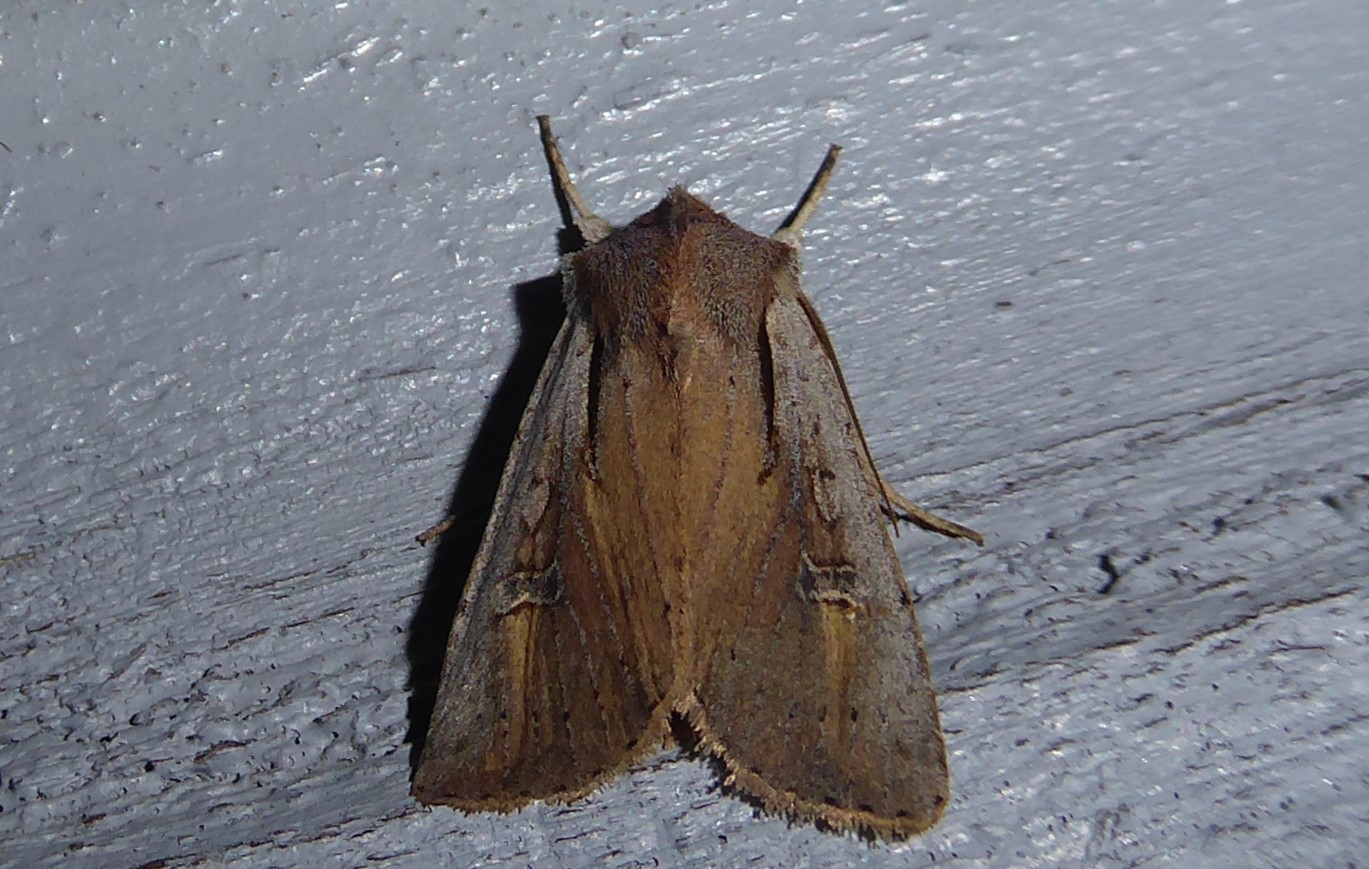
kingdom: Animalia
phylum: Arthropoda
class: Insecta
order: Lepidoptera
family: Noctuidae
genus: Ichneutica
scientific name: Ichneutica atristriga
